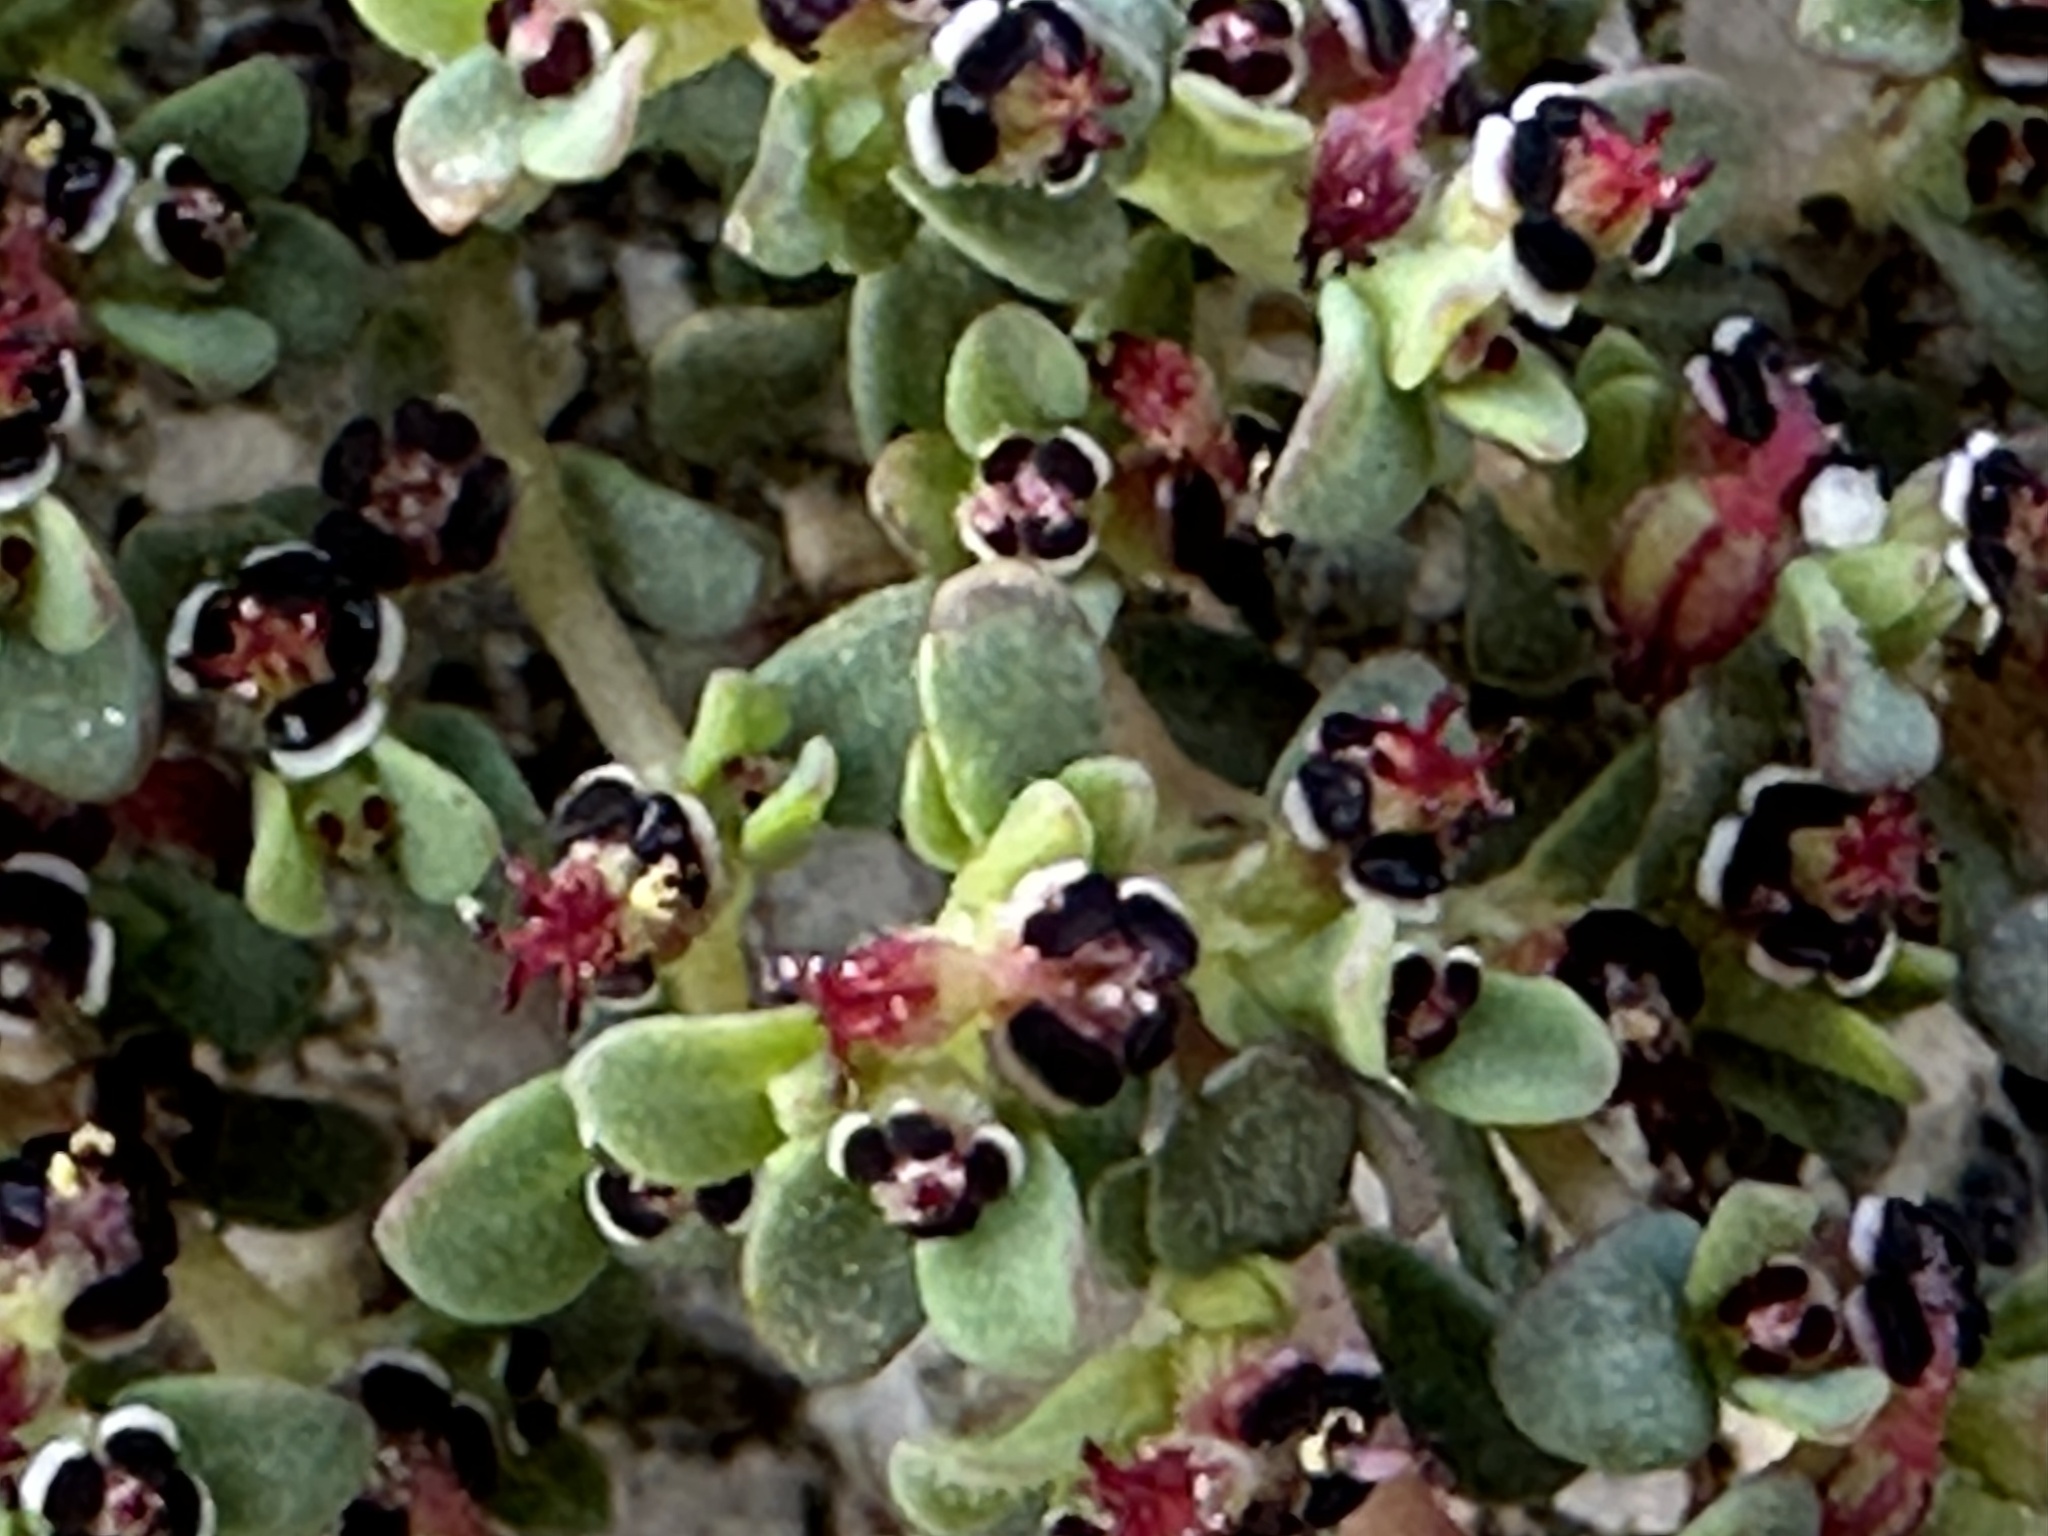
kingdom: Plantae
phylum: Tracheophyta
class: Magnoliopsida
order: Malpighiales
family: Euphorbiaceae
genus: Euphorbia
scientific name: Euphorbia polycarpa
